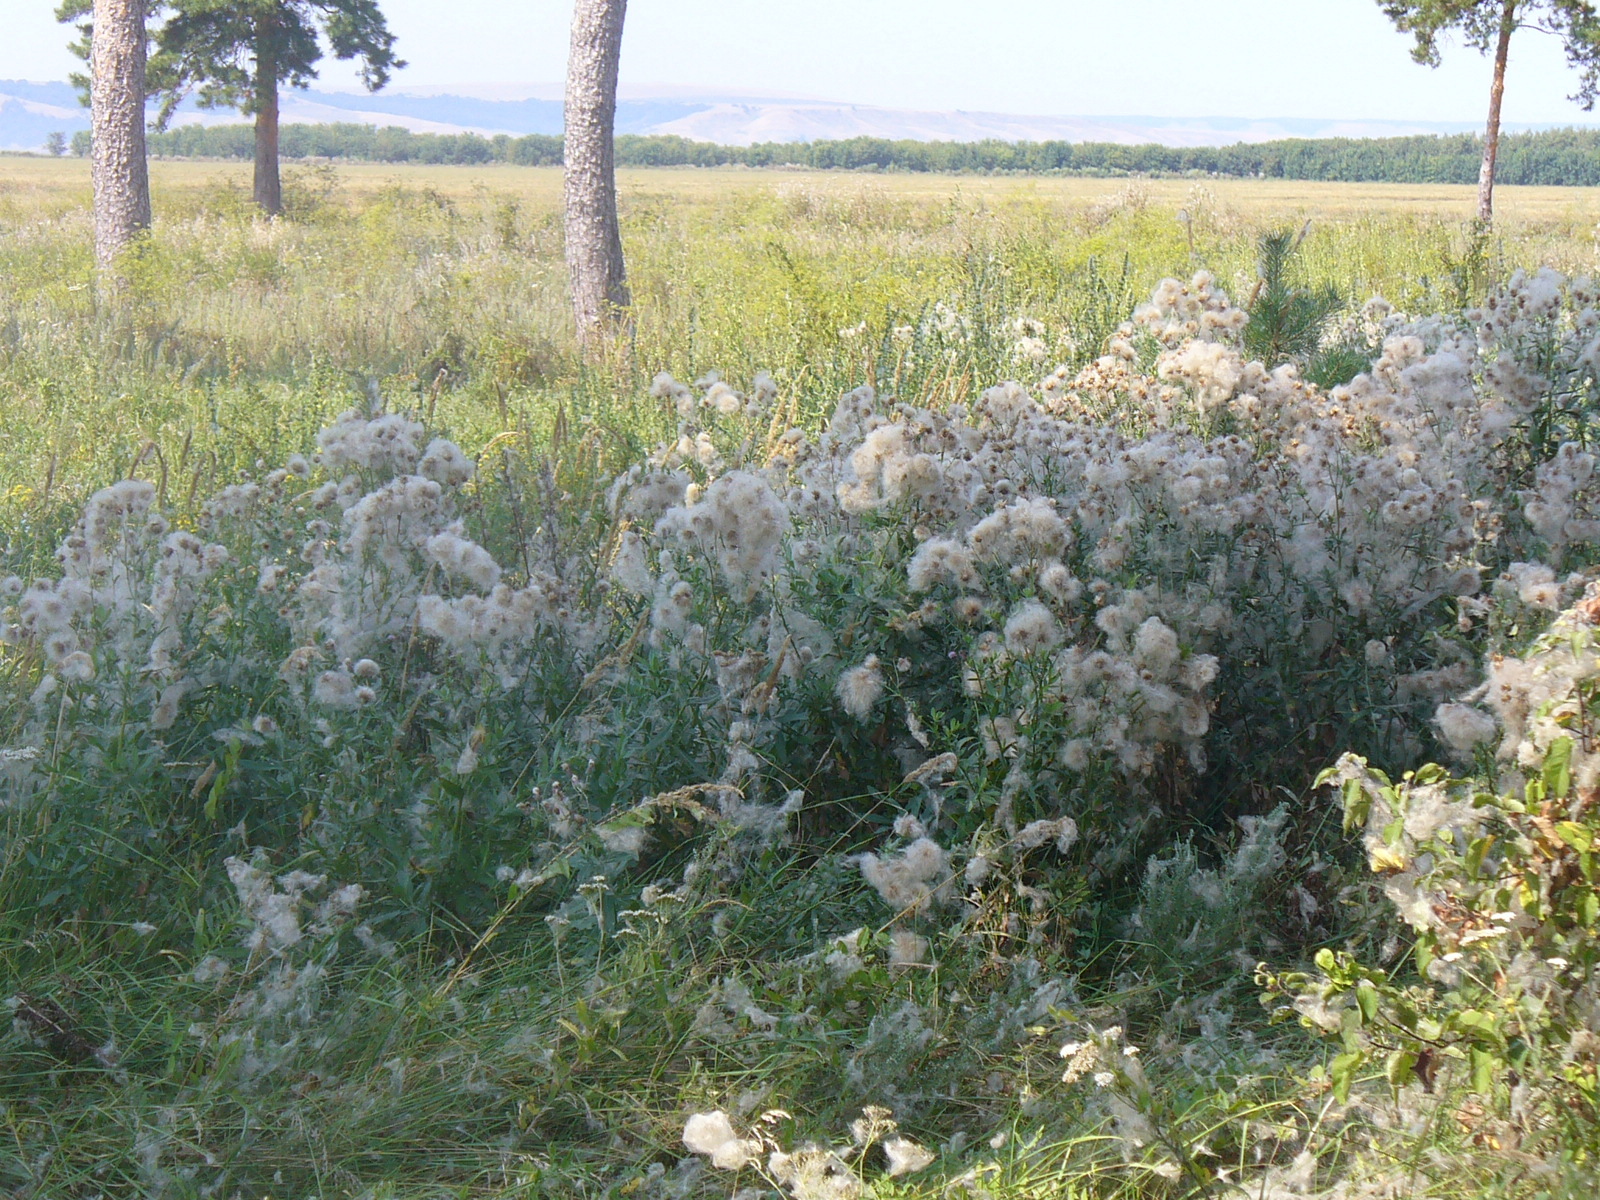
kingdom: Plantae
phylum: Tracheophyta
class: Magnoliopsida
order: Asterales
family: Asteraceae
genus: Cirsium
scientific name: Cirsium arvense
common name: Creeping thistle
